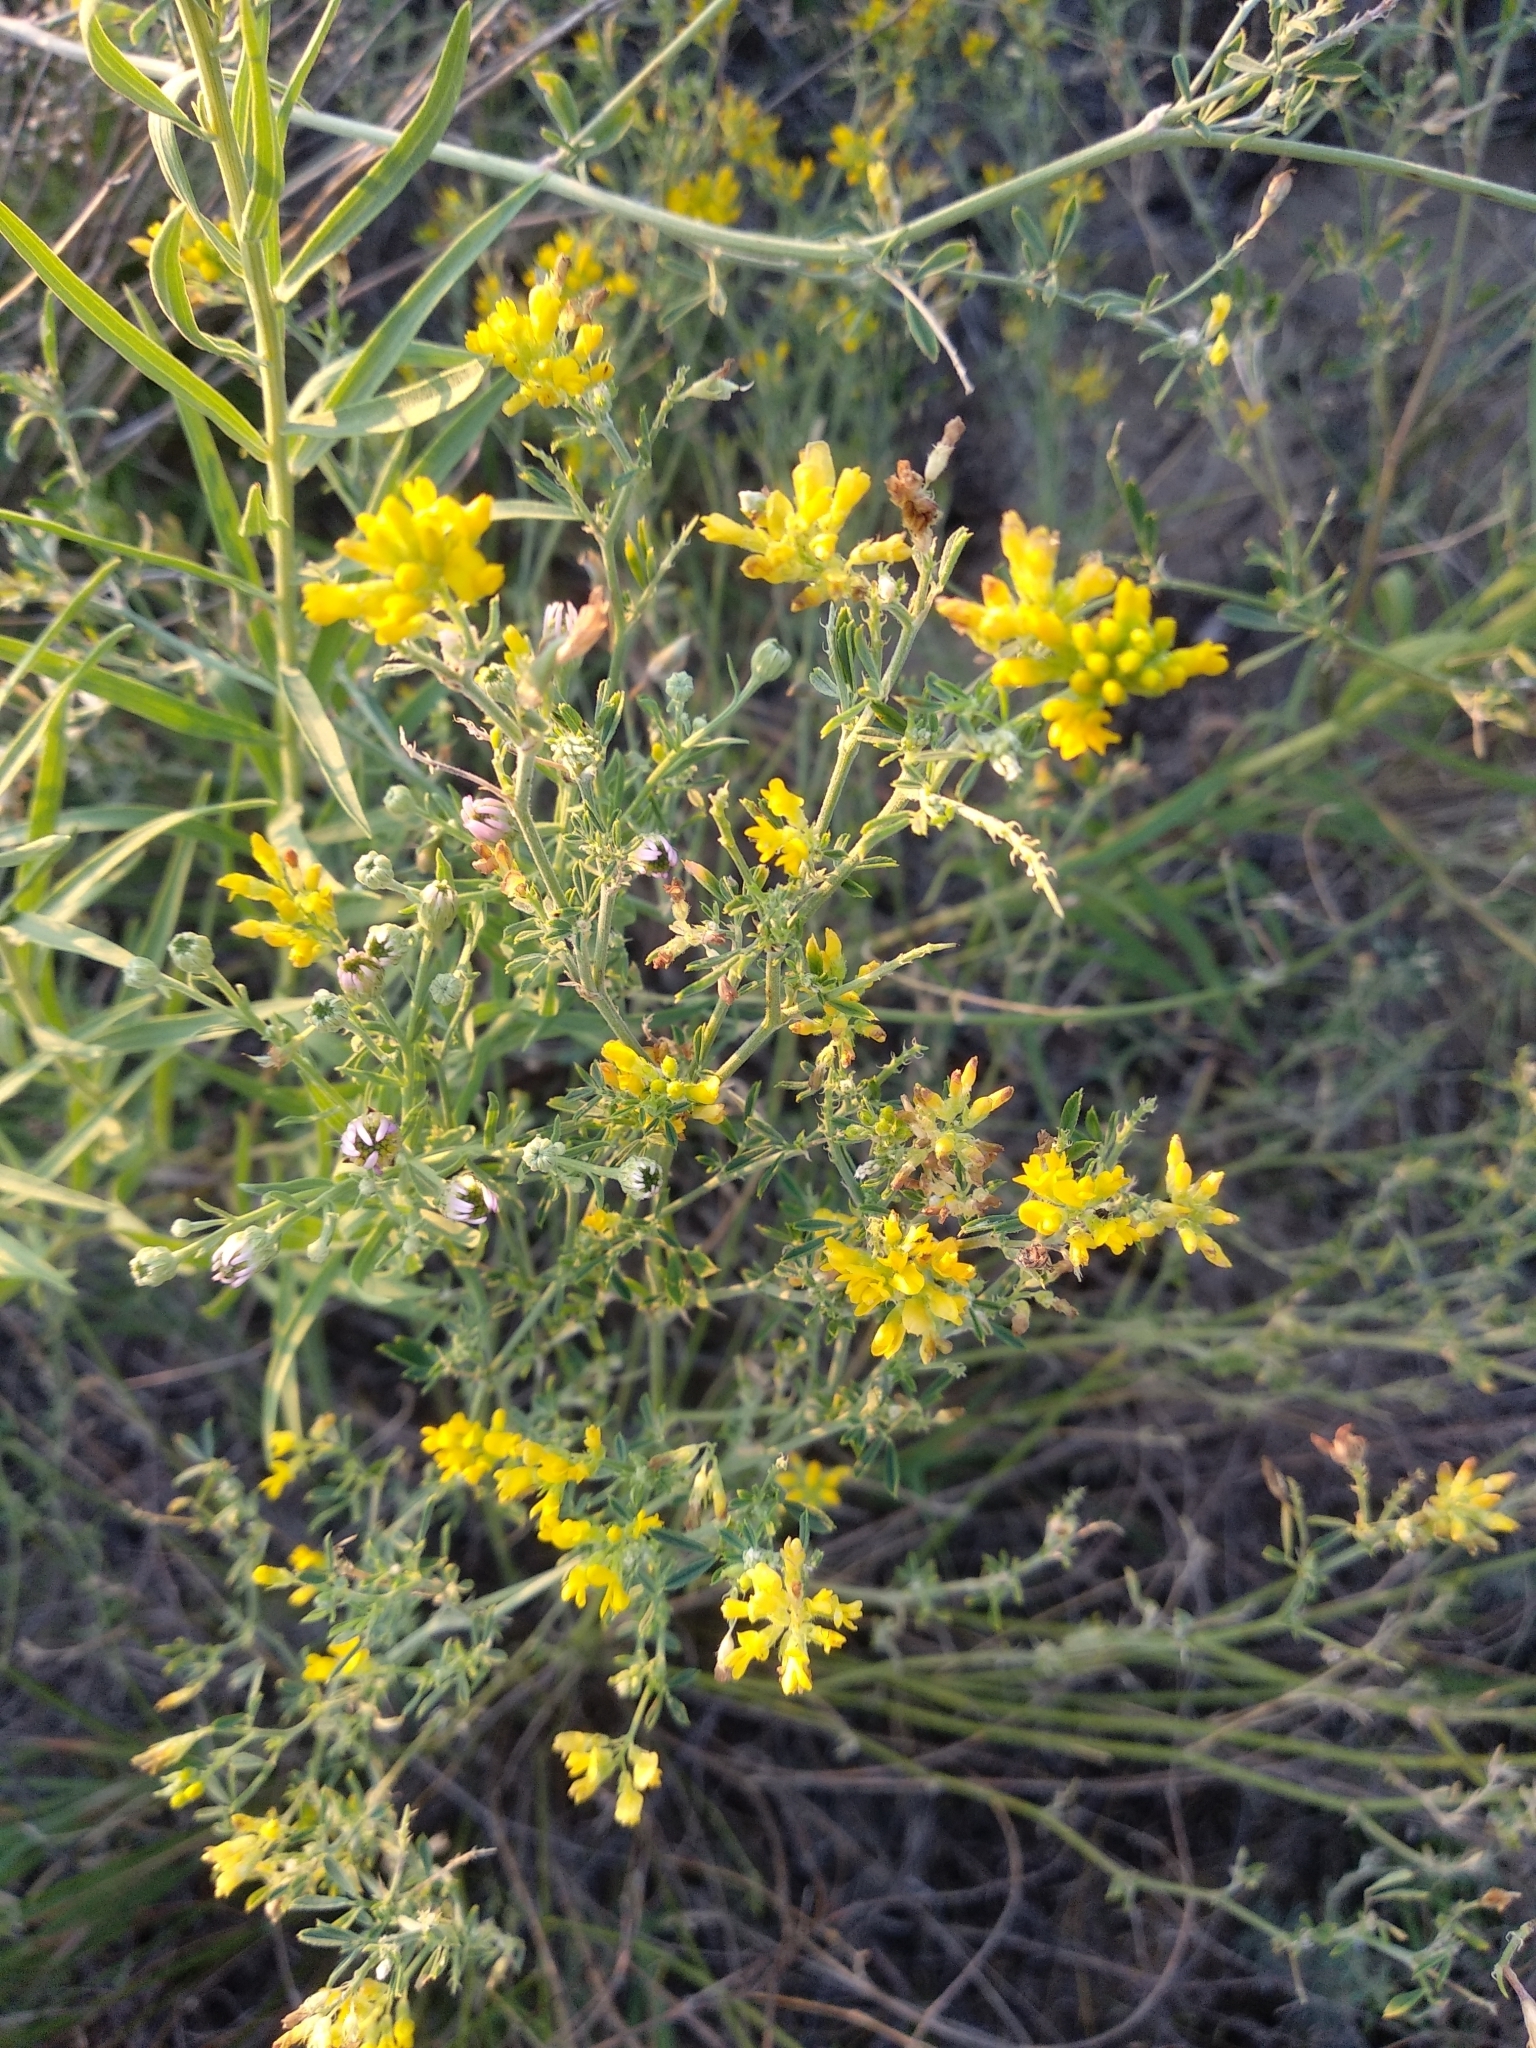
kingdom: Plantae
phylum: Tracheophyta
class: Magnoliopsida
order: Fabales
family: Fabaceae
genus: Medicago
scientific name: Medicago falcata
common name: Sickle medick
